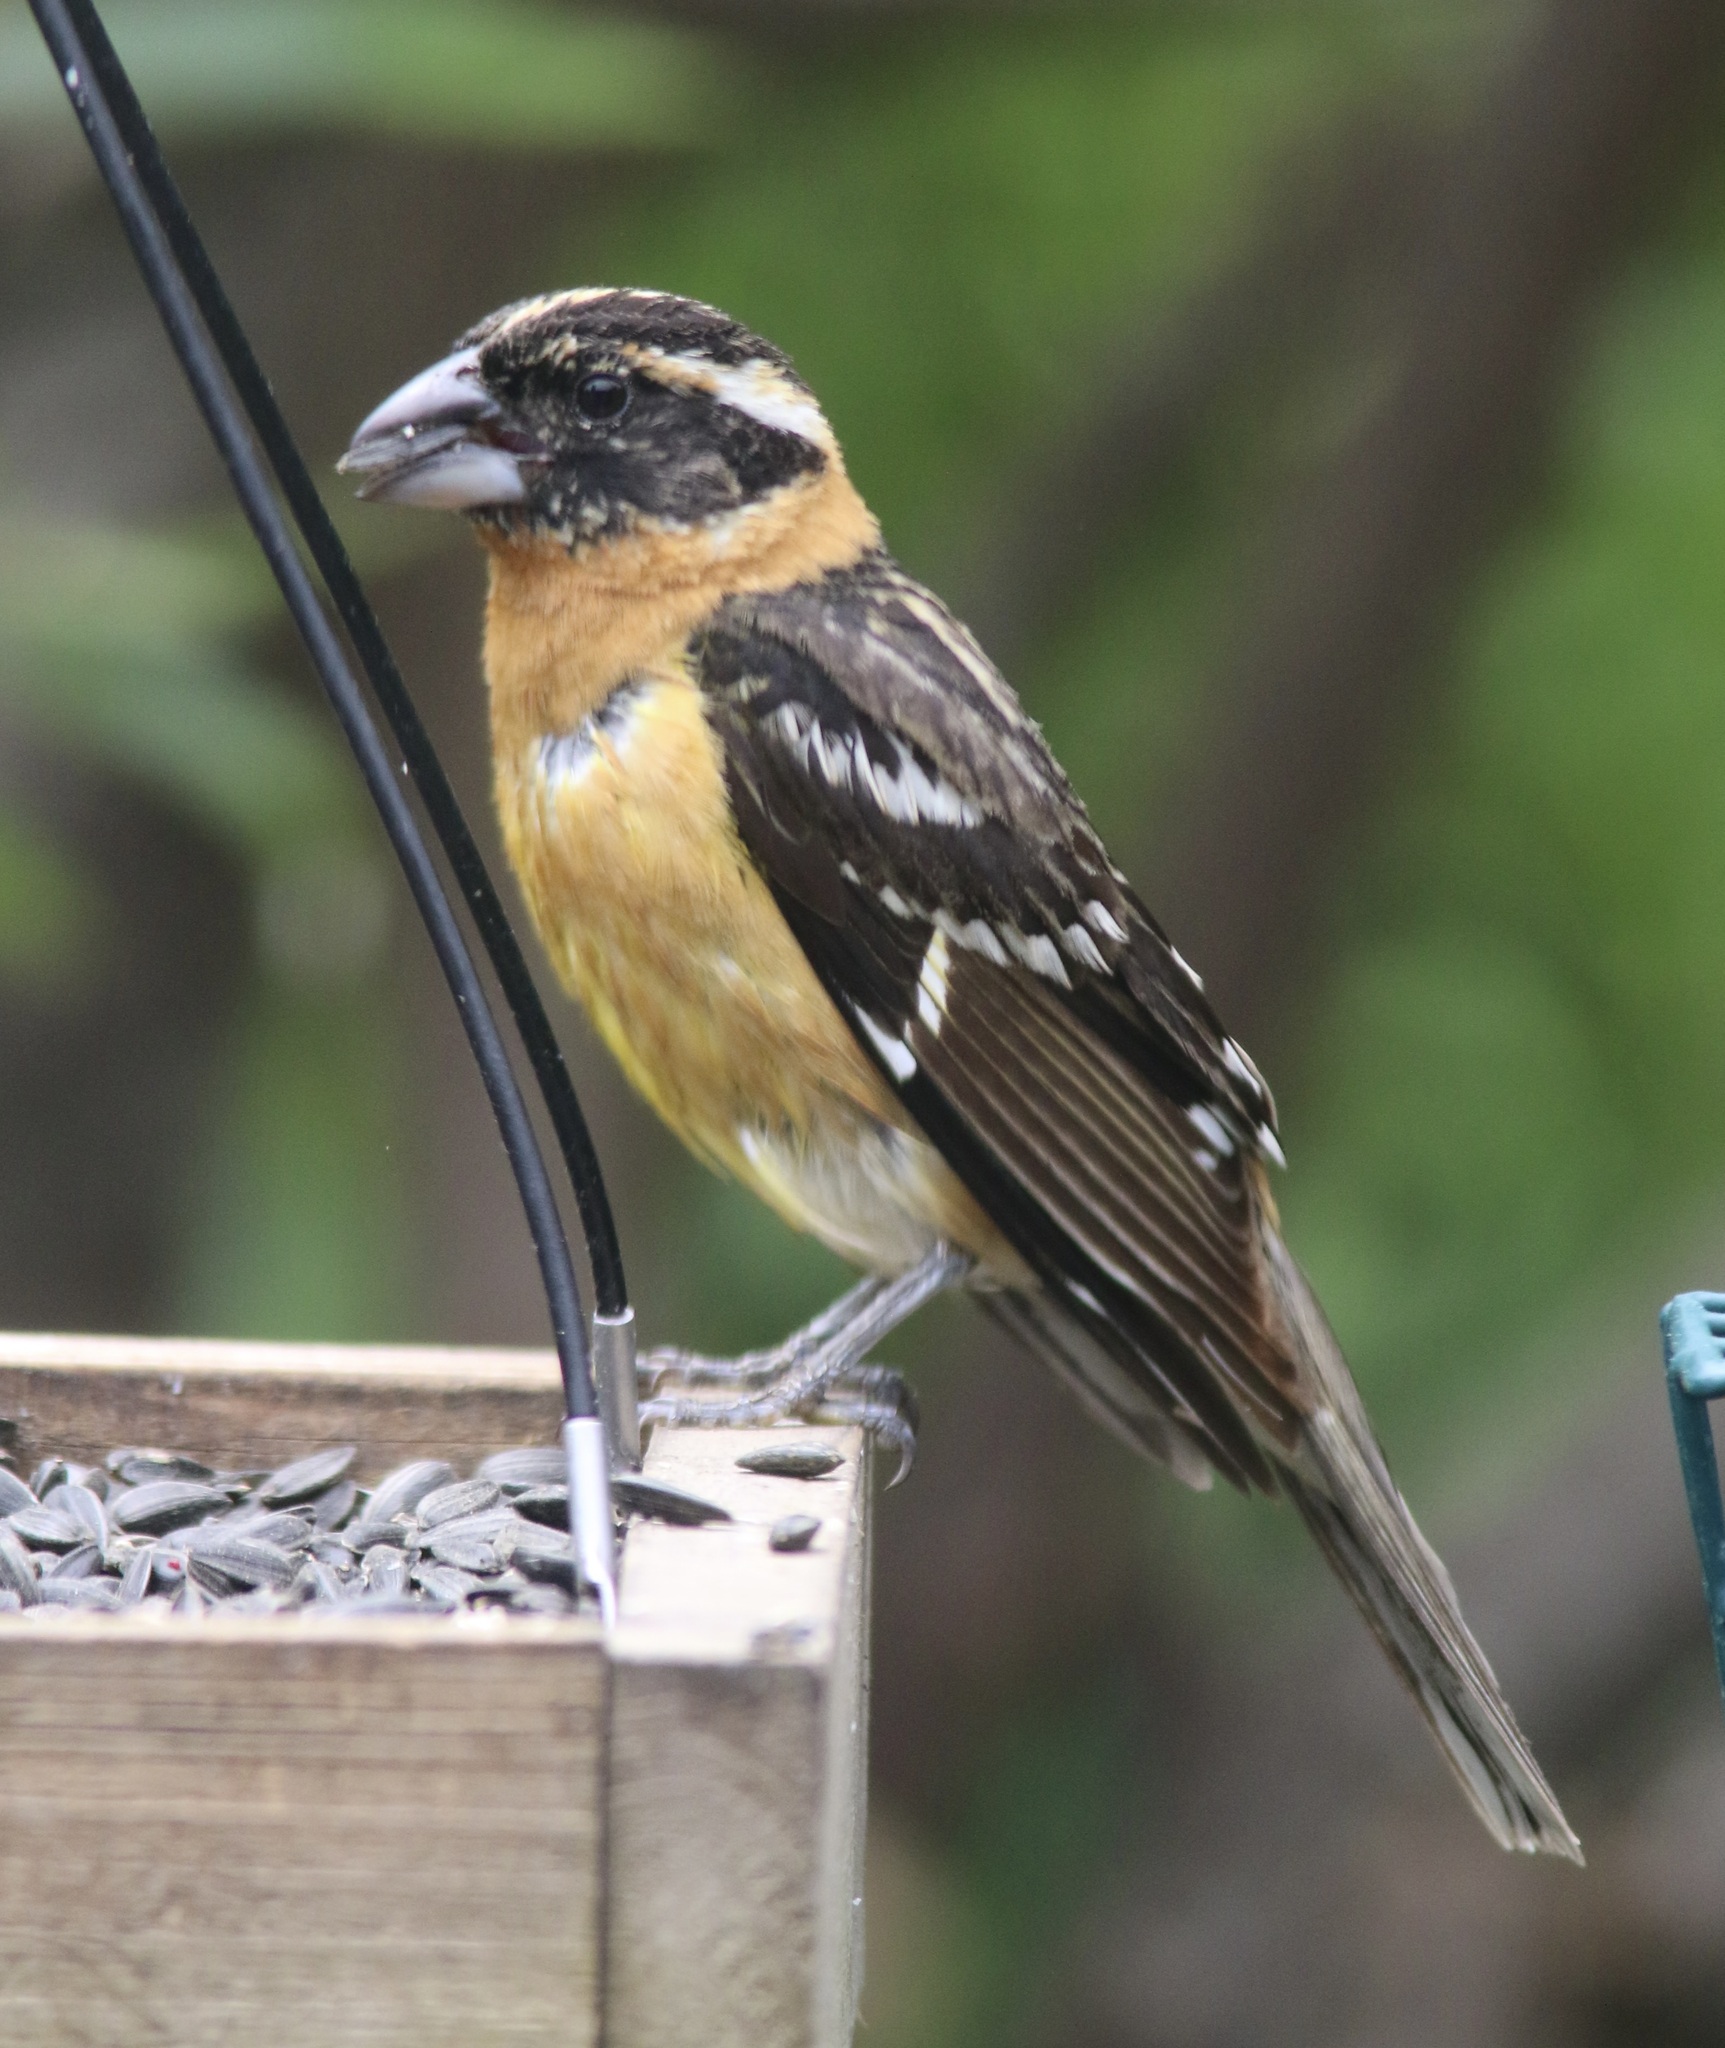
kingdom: Animalia
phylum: Chordata
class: Aves
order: Passeriformes
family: Cardinalidae
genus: Pheucticus
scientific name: Pheucticus melanocephalus
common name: Black-headed grosbeak
